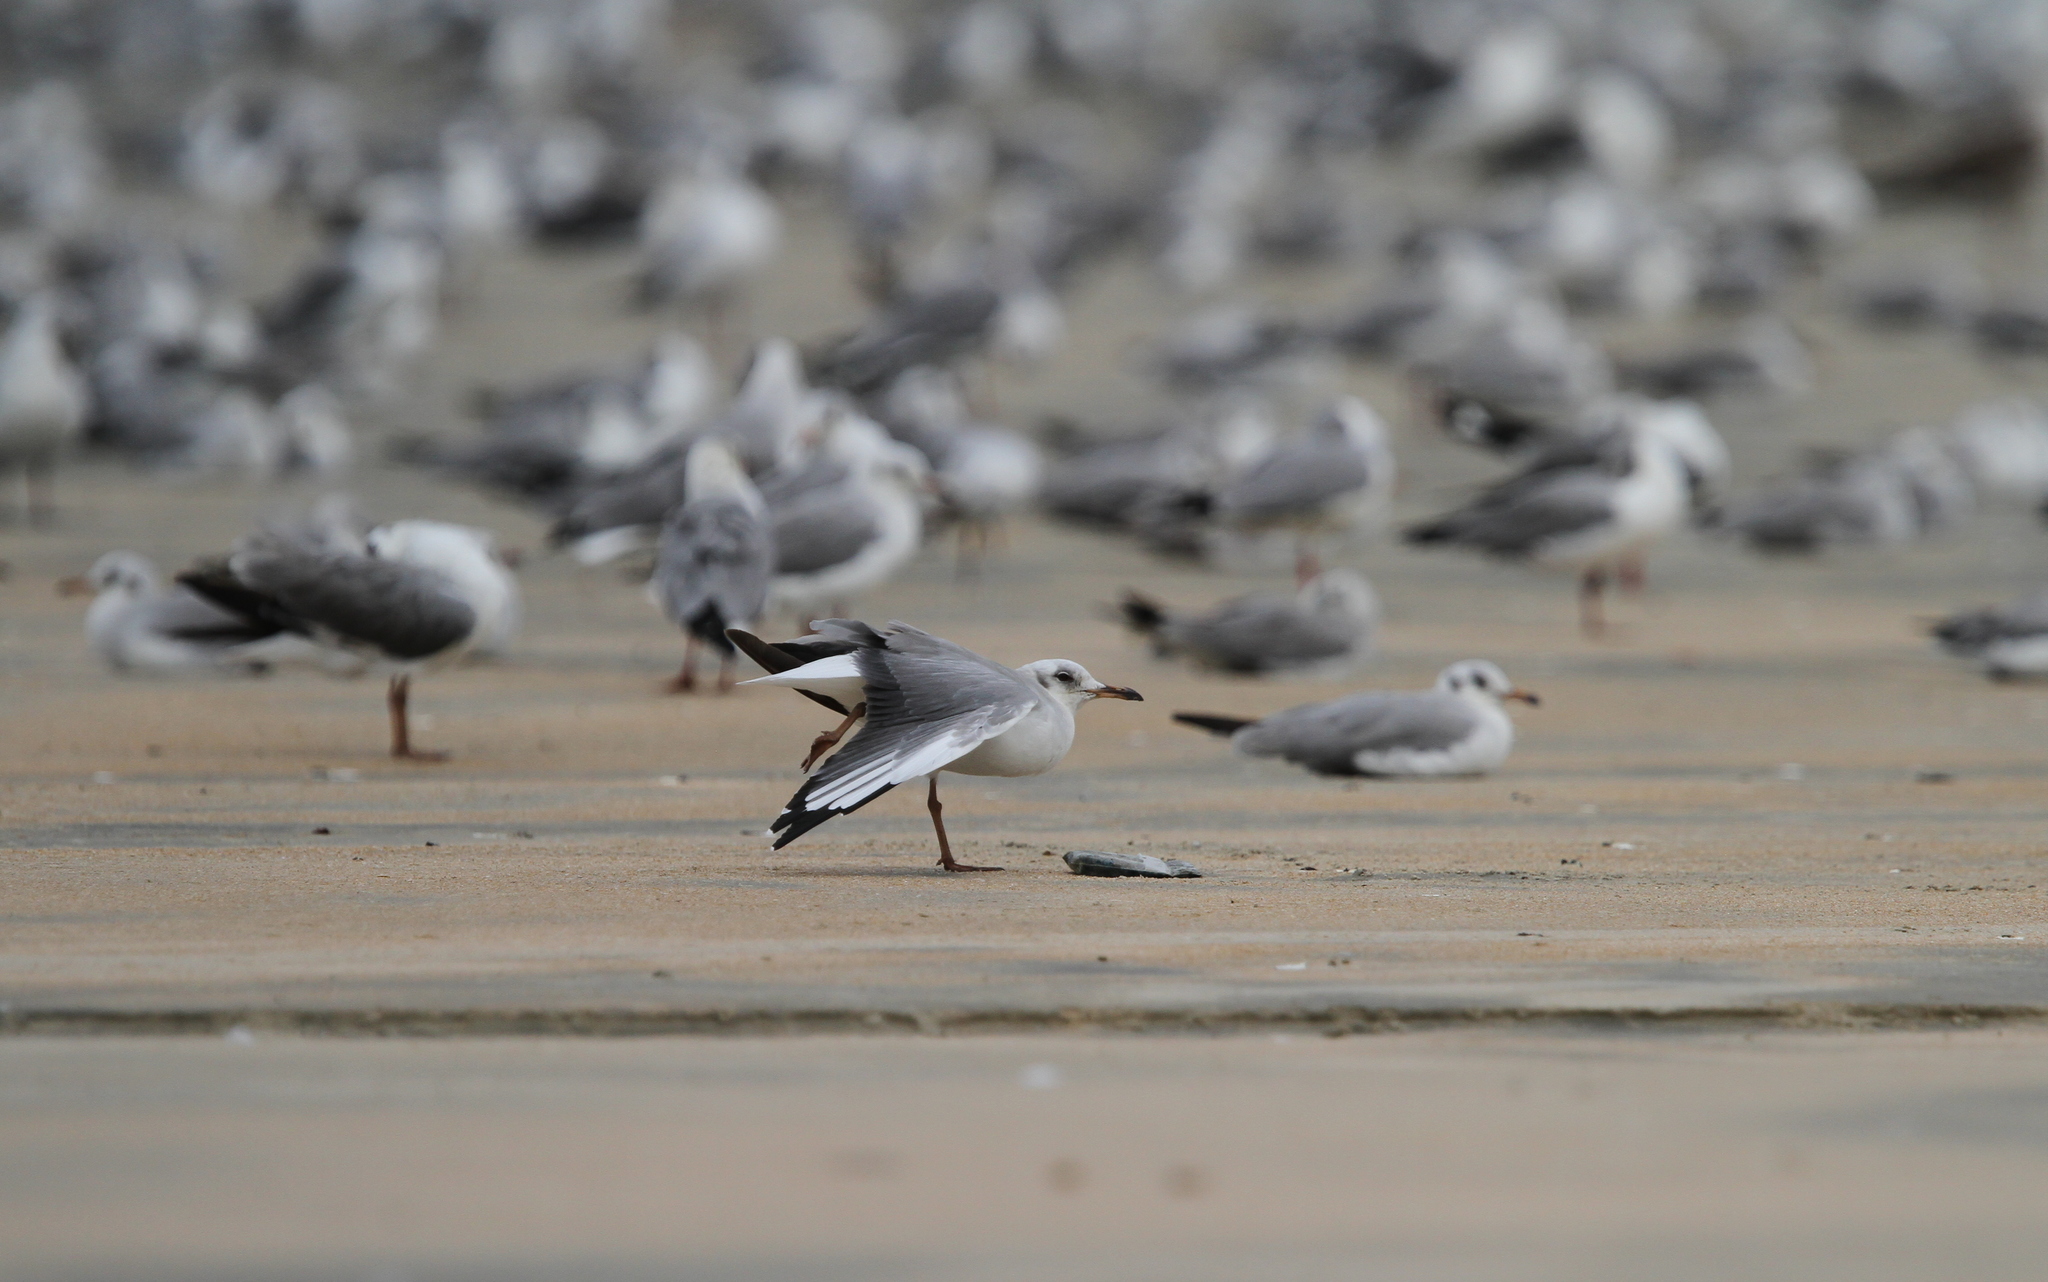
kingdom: Animalia
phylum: Chordata
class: Aves
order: Charadriiformes
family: Laridae
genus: Chroicocephalus
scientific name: Chroicocephalus ridibundus
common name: Black-headed gull
